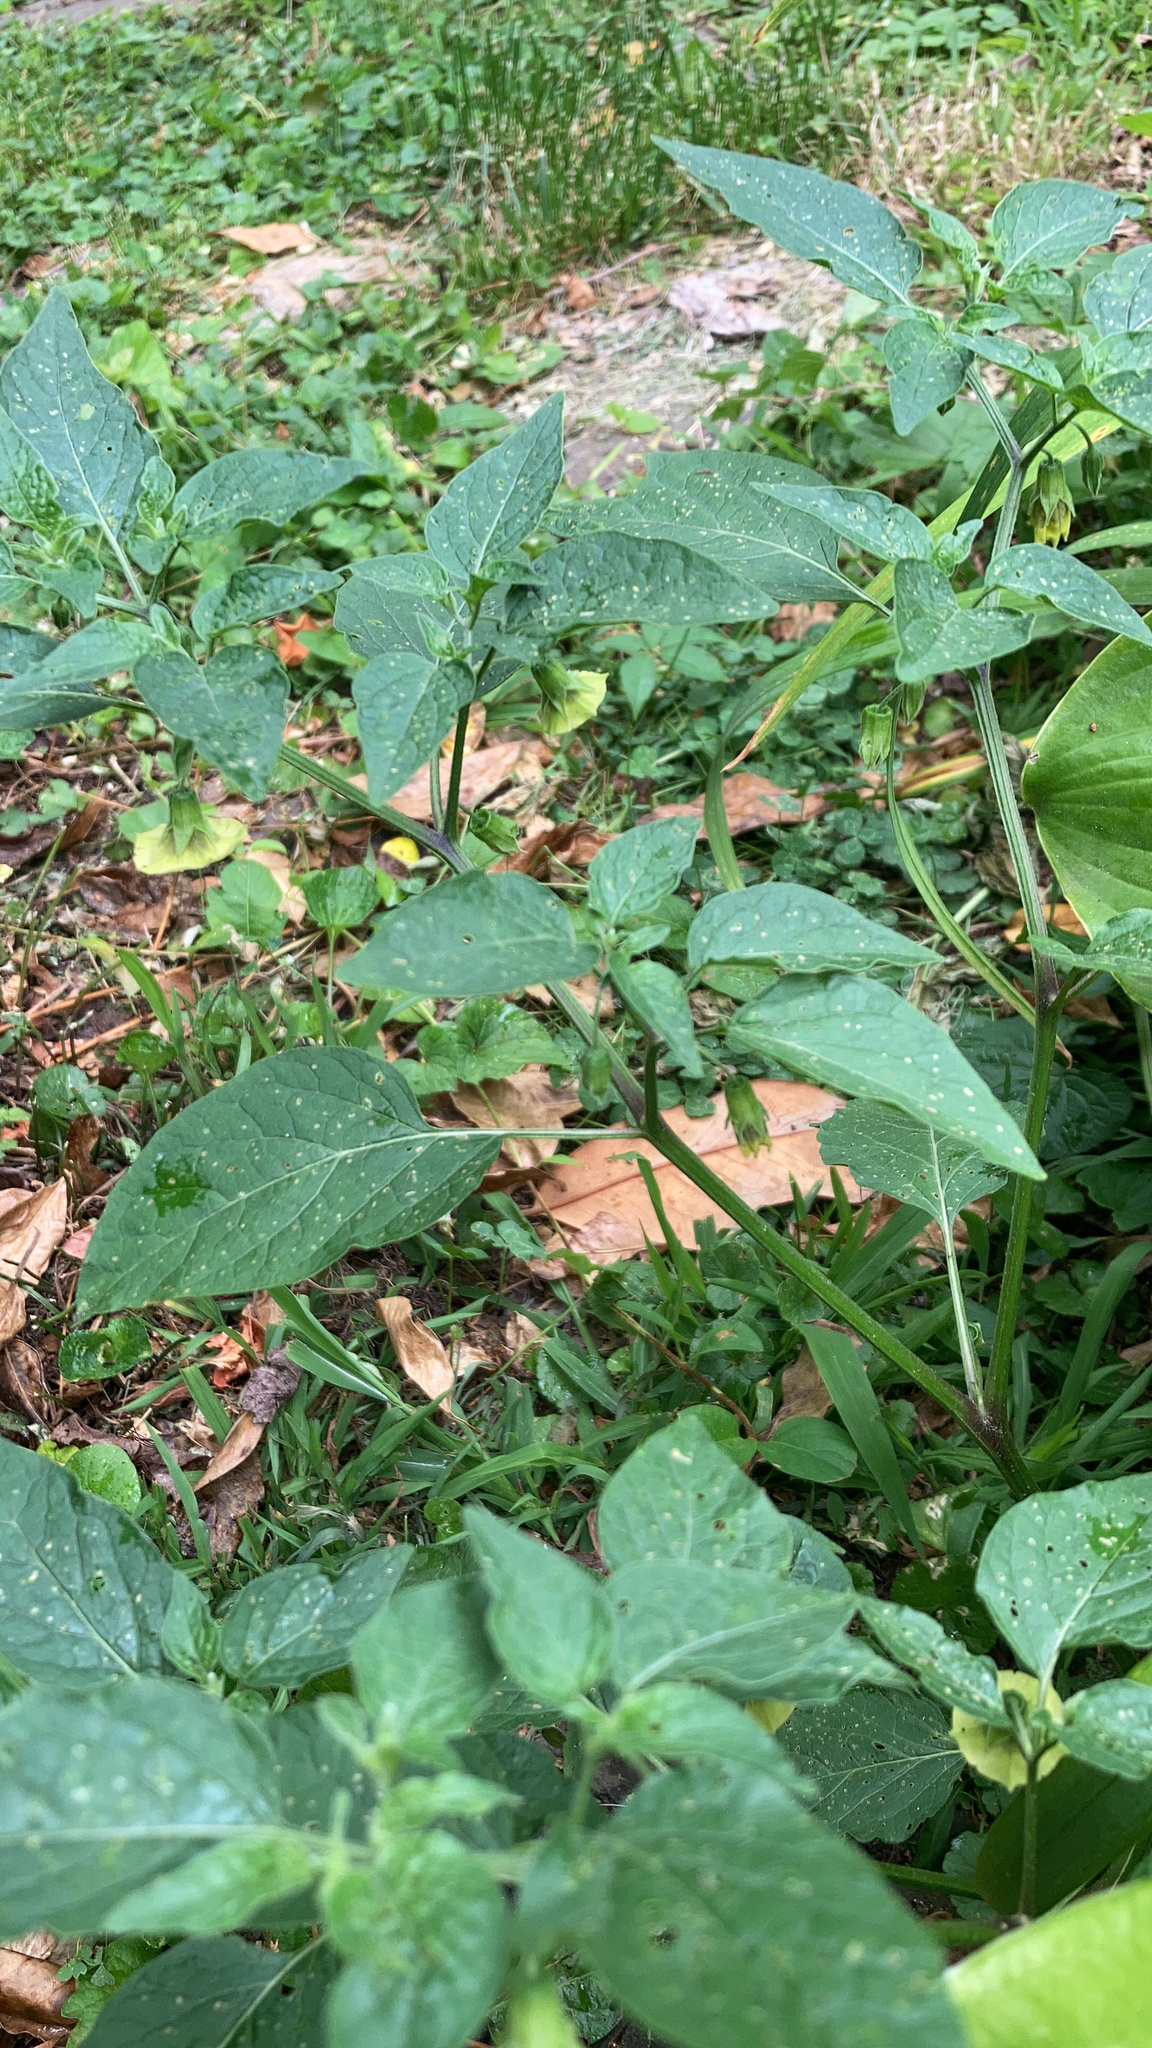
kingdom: Plantae
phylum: Tracheophyta
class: Magnoliopsida
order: Solanales
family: Solanaceae
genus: Physalis
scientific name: Physalis longifolia
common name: Common ground-cherry
